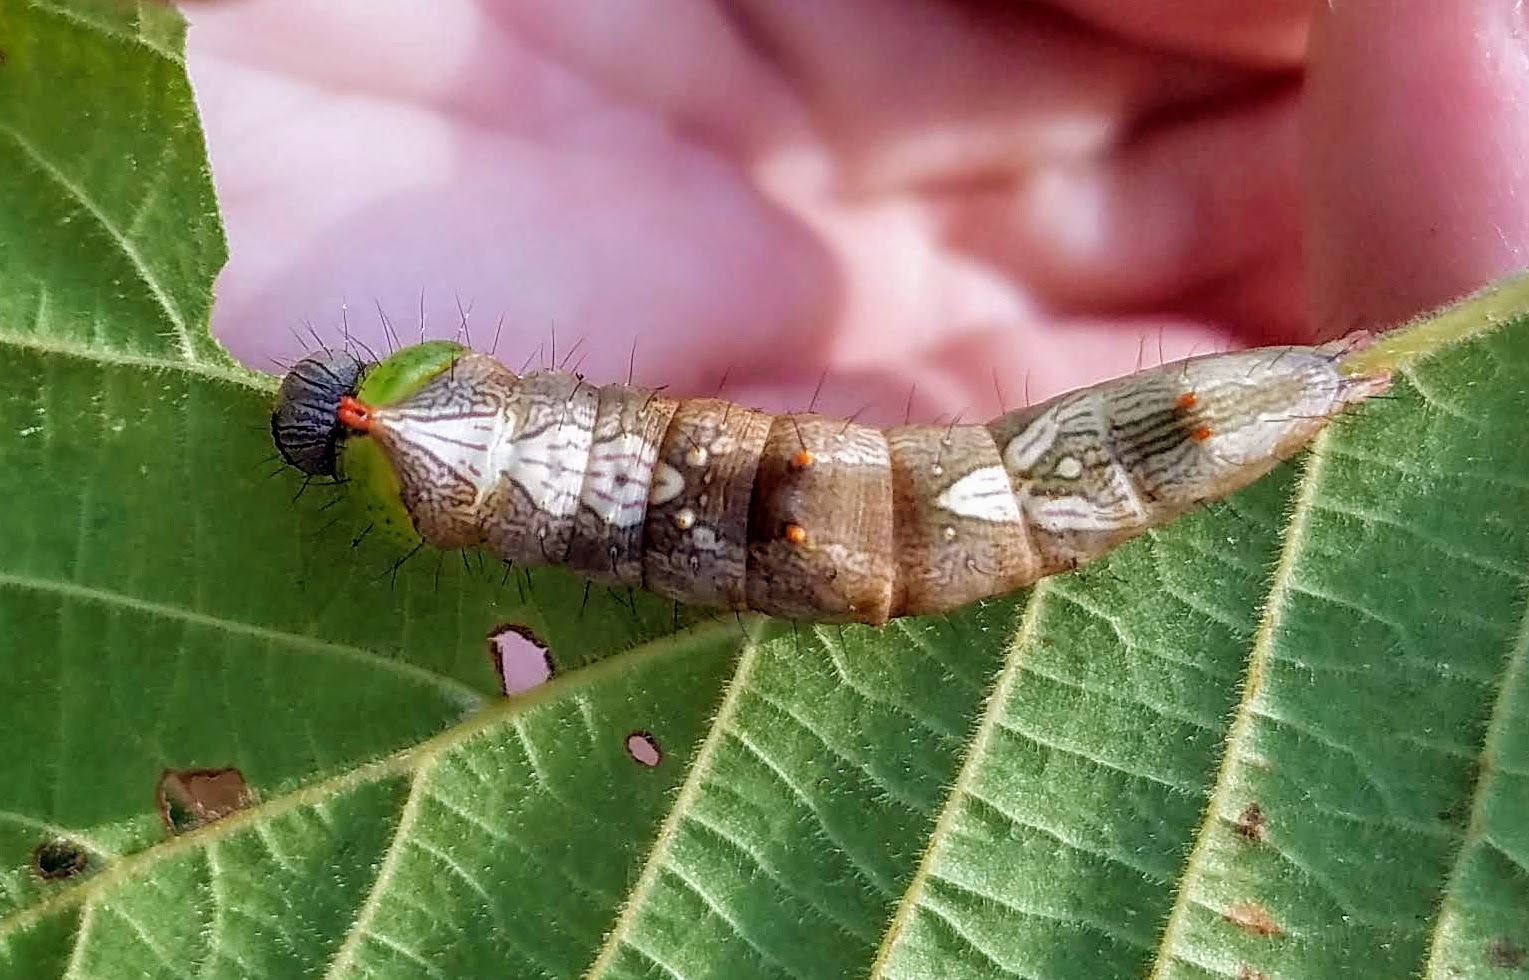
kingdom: Animalia
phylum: Arthropoda
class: Insecta
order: Lepidoptera
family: Notodontidae
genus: Schizura
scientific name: Schizura ipomaeae
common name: Morning-glory prominent
